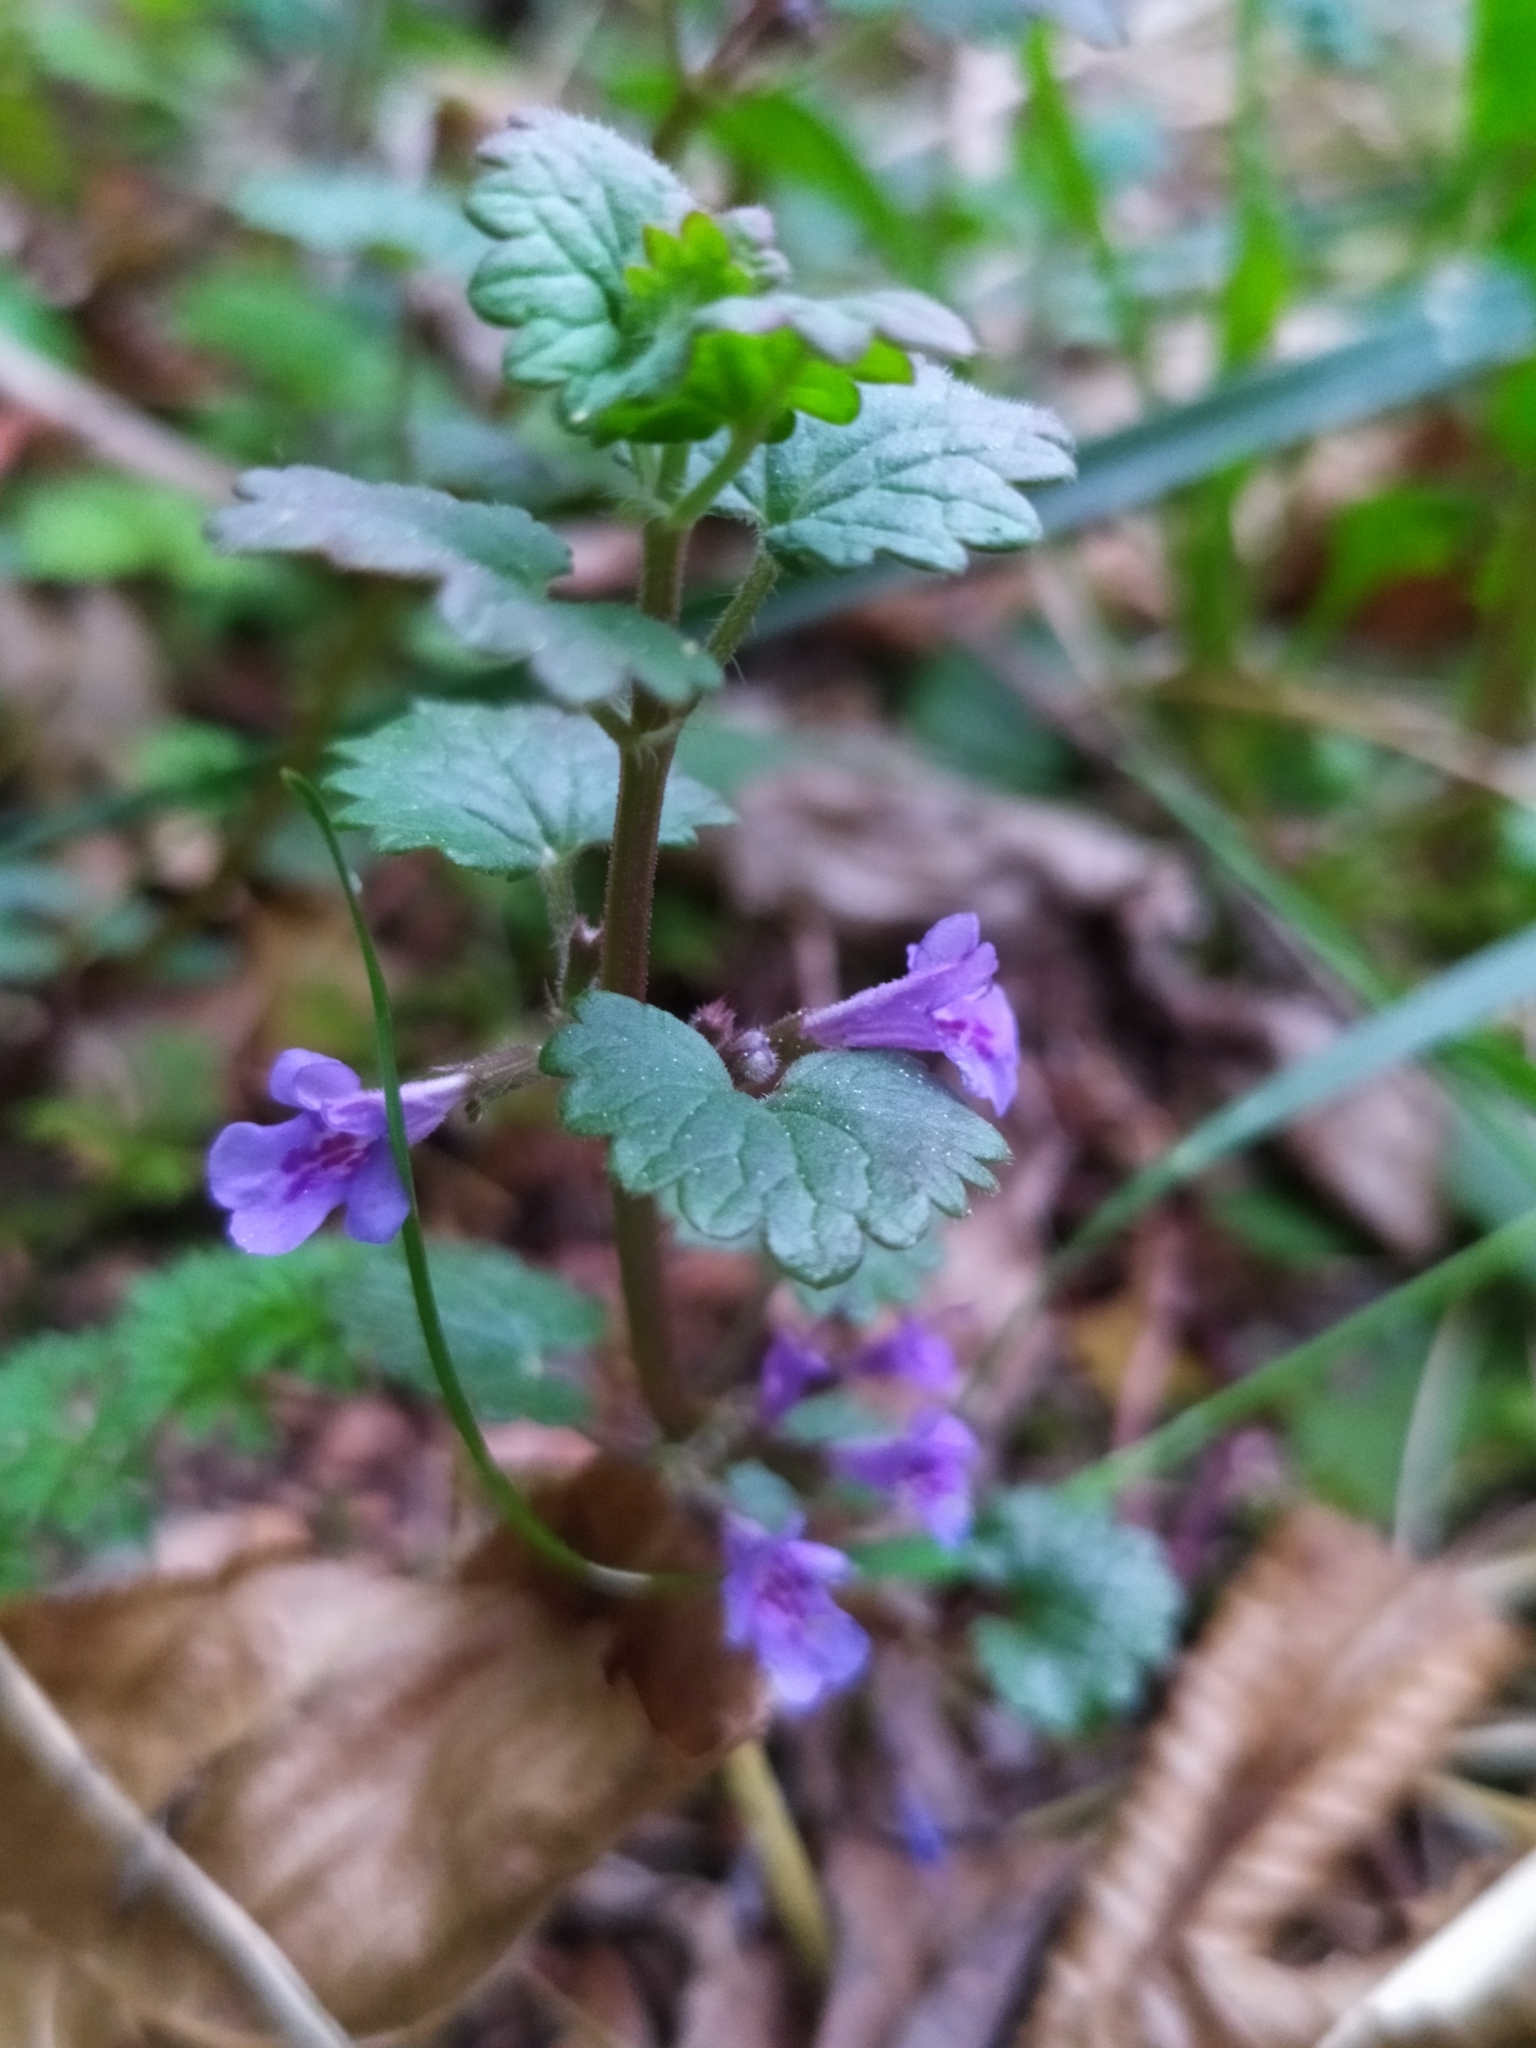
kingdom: Plantae
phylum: Tracheophyta
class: Magnoliopsida
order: Lamiales
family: Lamiaceae
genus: Glechoma
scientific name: Glechoma hederacea
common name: Ground ivy
